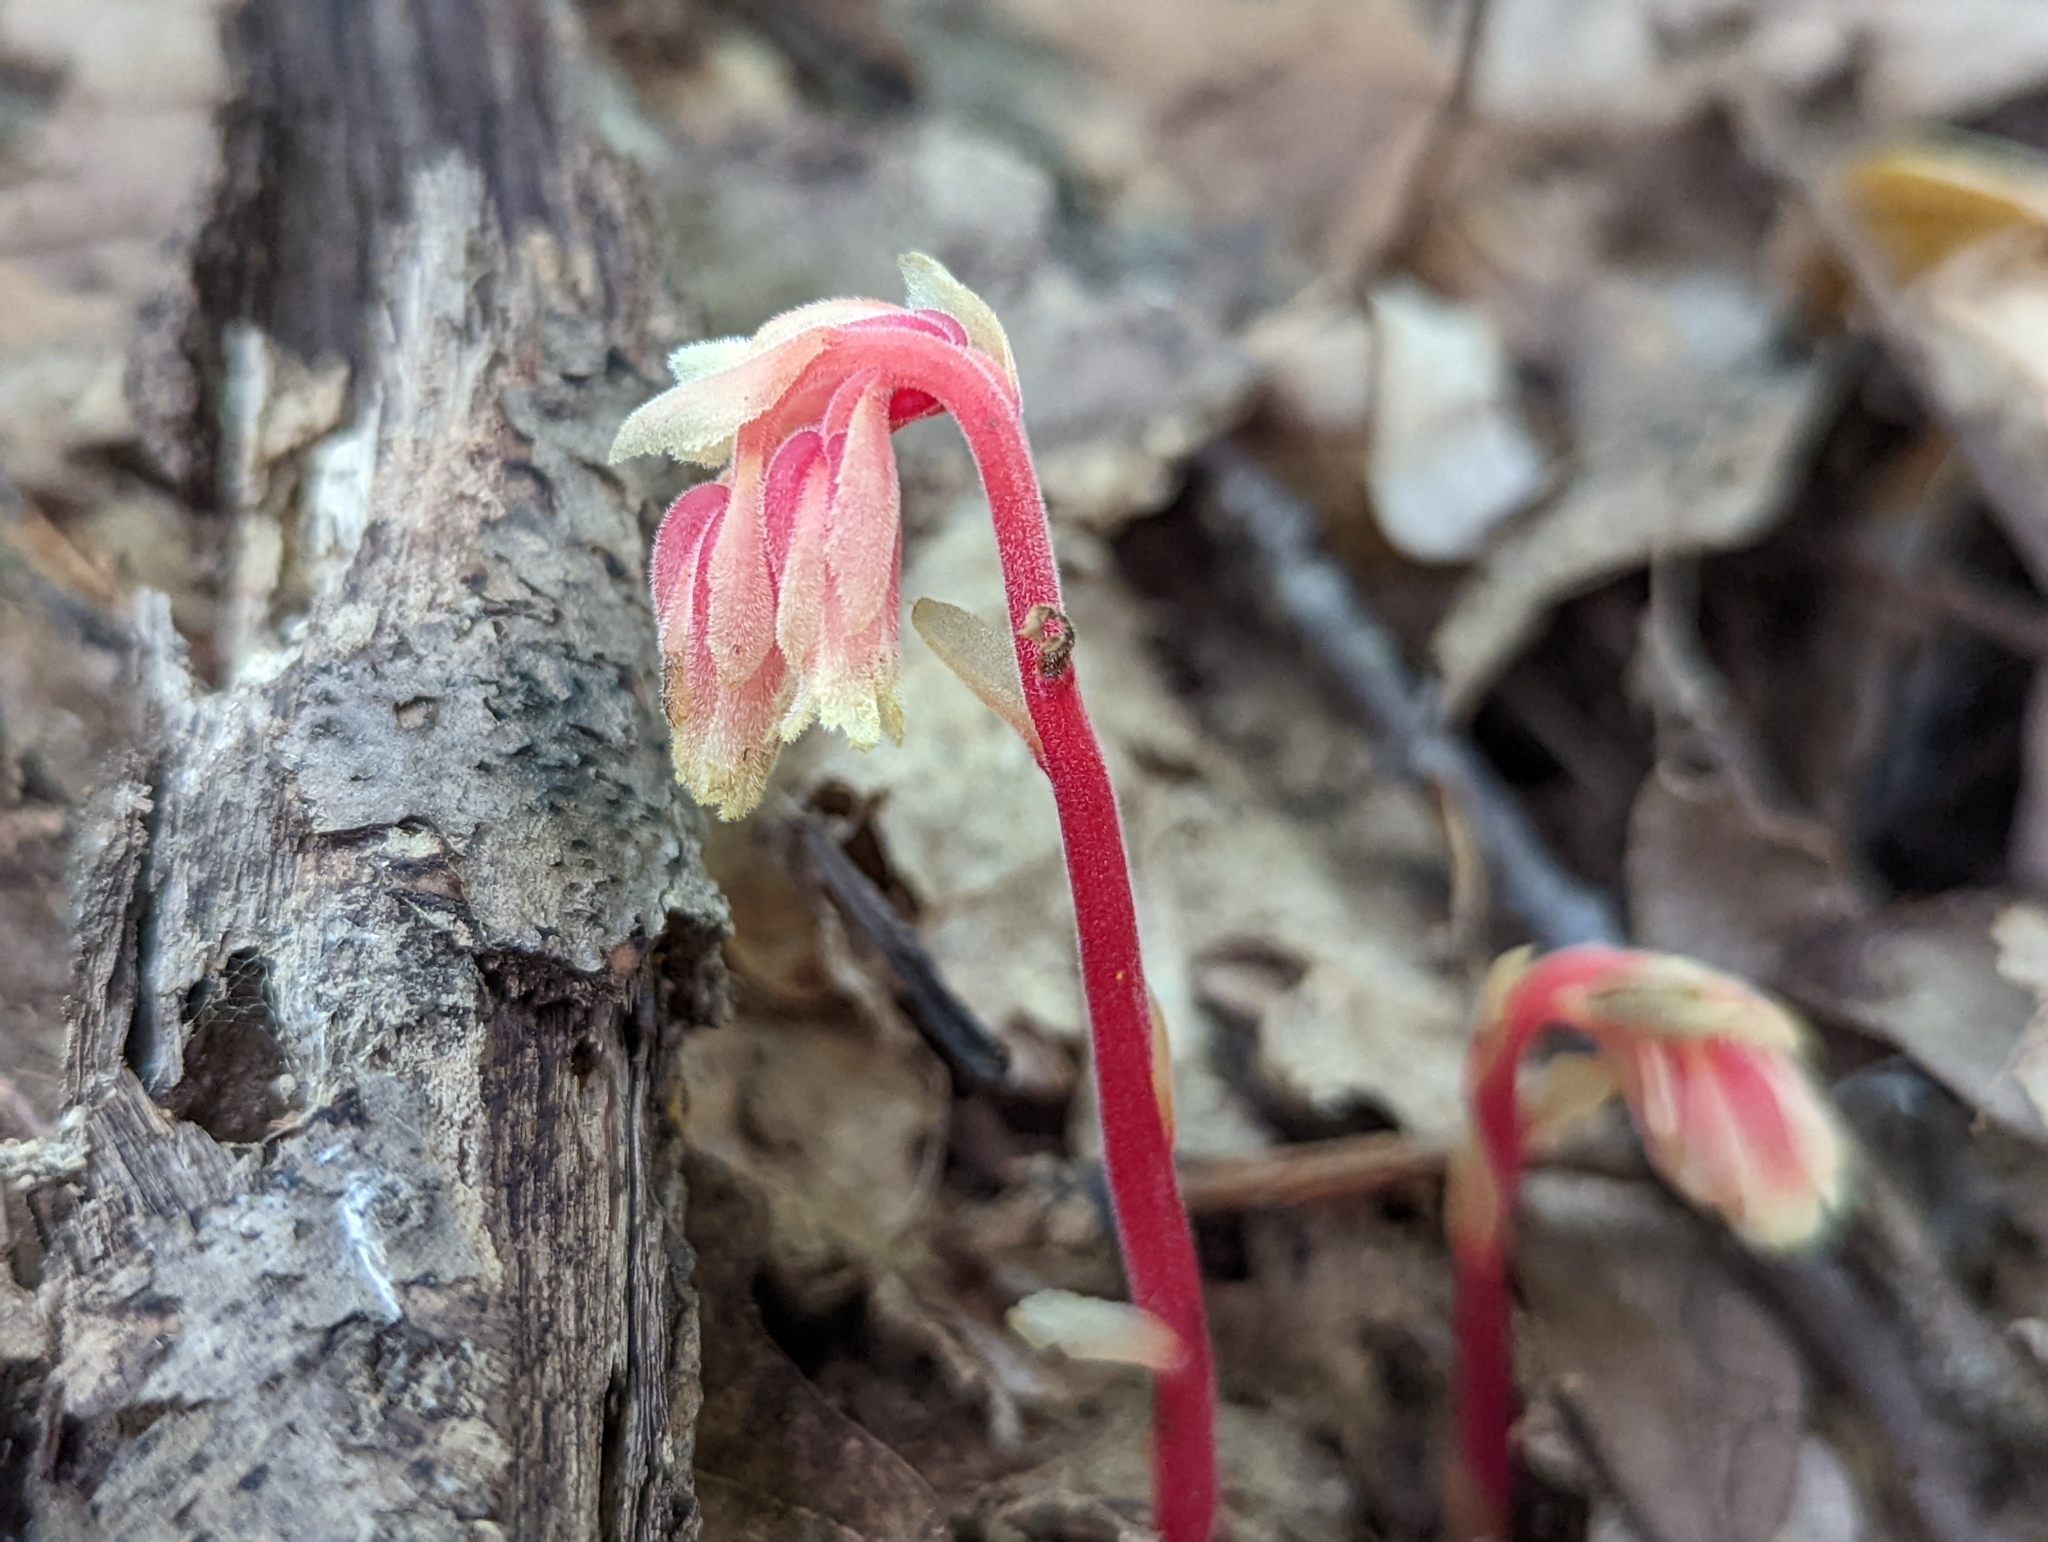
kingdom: Plantae
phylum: Tracheophyta
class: Magnoliopsida
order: Ericales
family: Ericaceae
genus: Hypopitys
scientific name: Hypopitys monotropa
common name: Yellow bird's-nest
